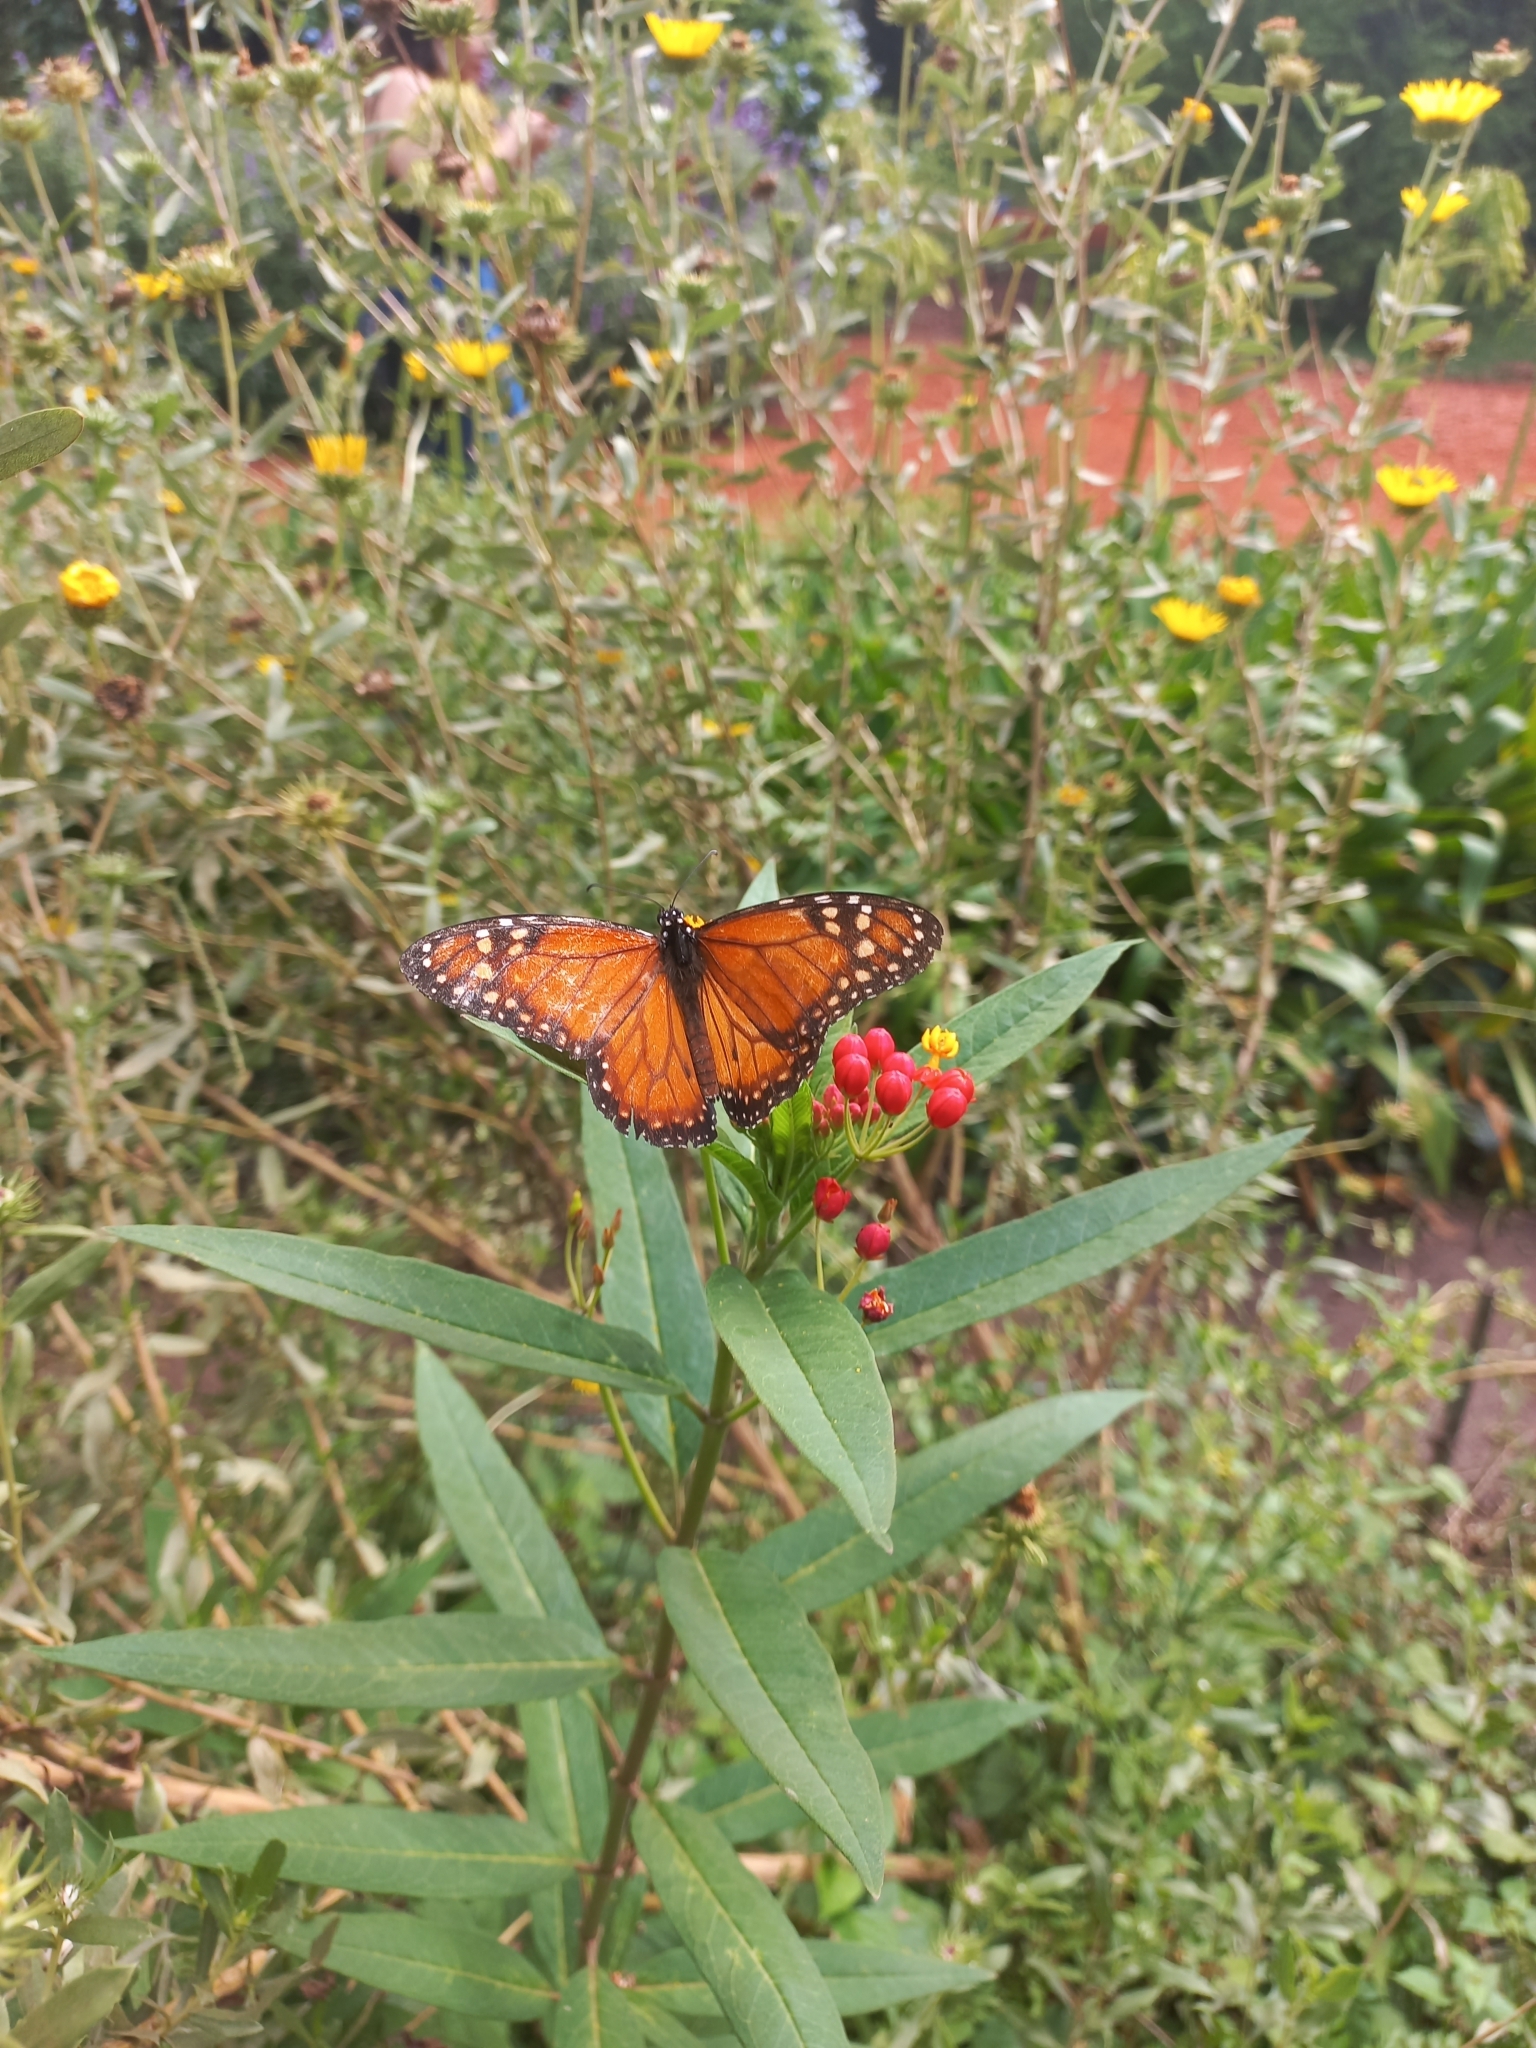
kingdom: Animalia
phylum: Arthropoda
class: Insecta
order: Lepidoptera
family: Nymphalidae
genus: Danaus
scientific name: Danaus erippus
